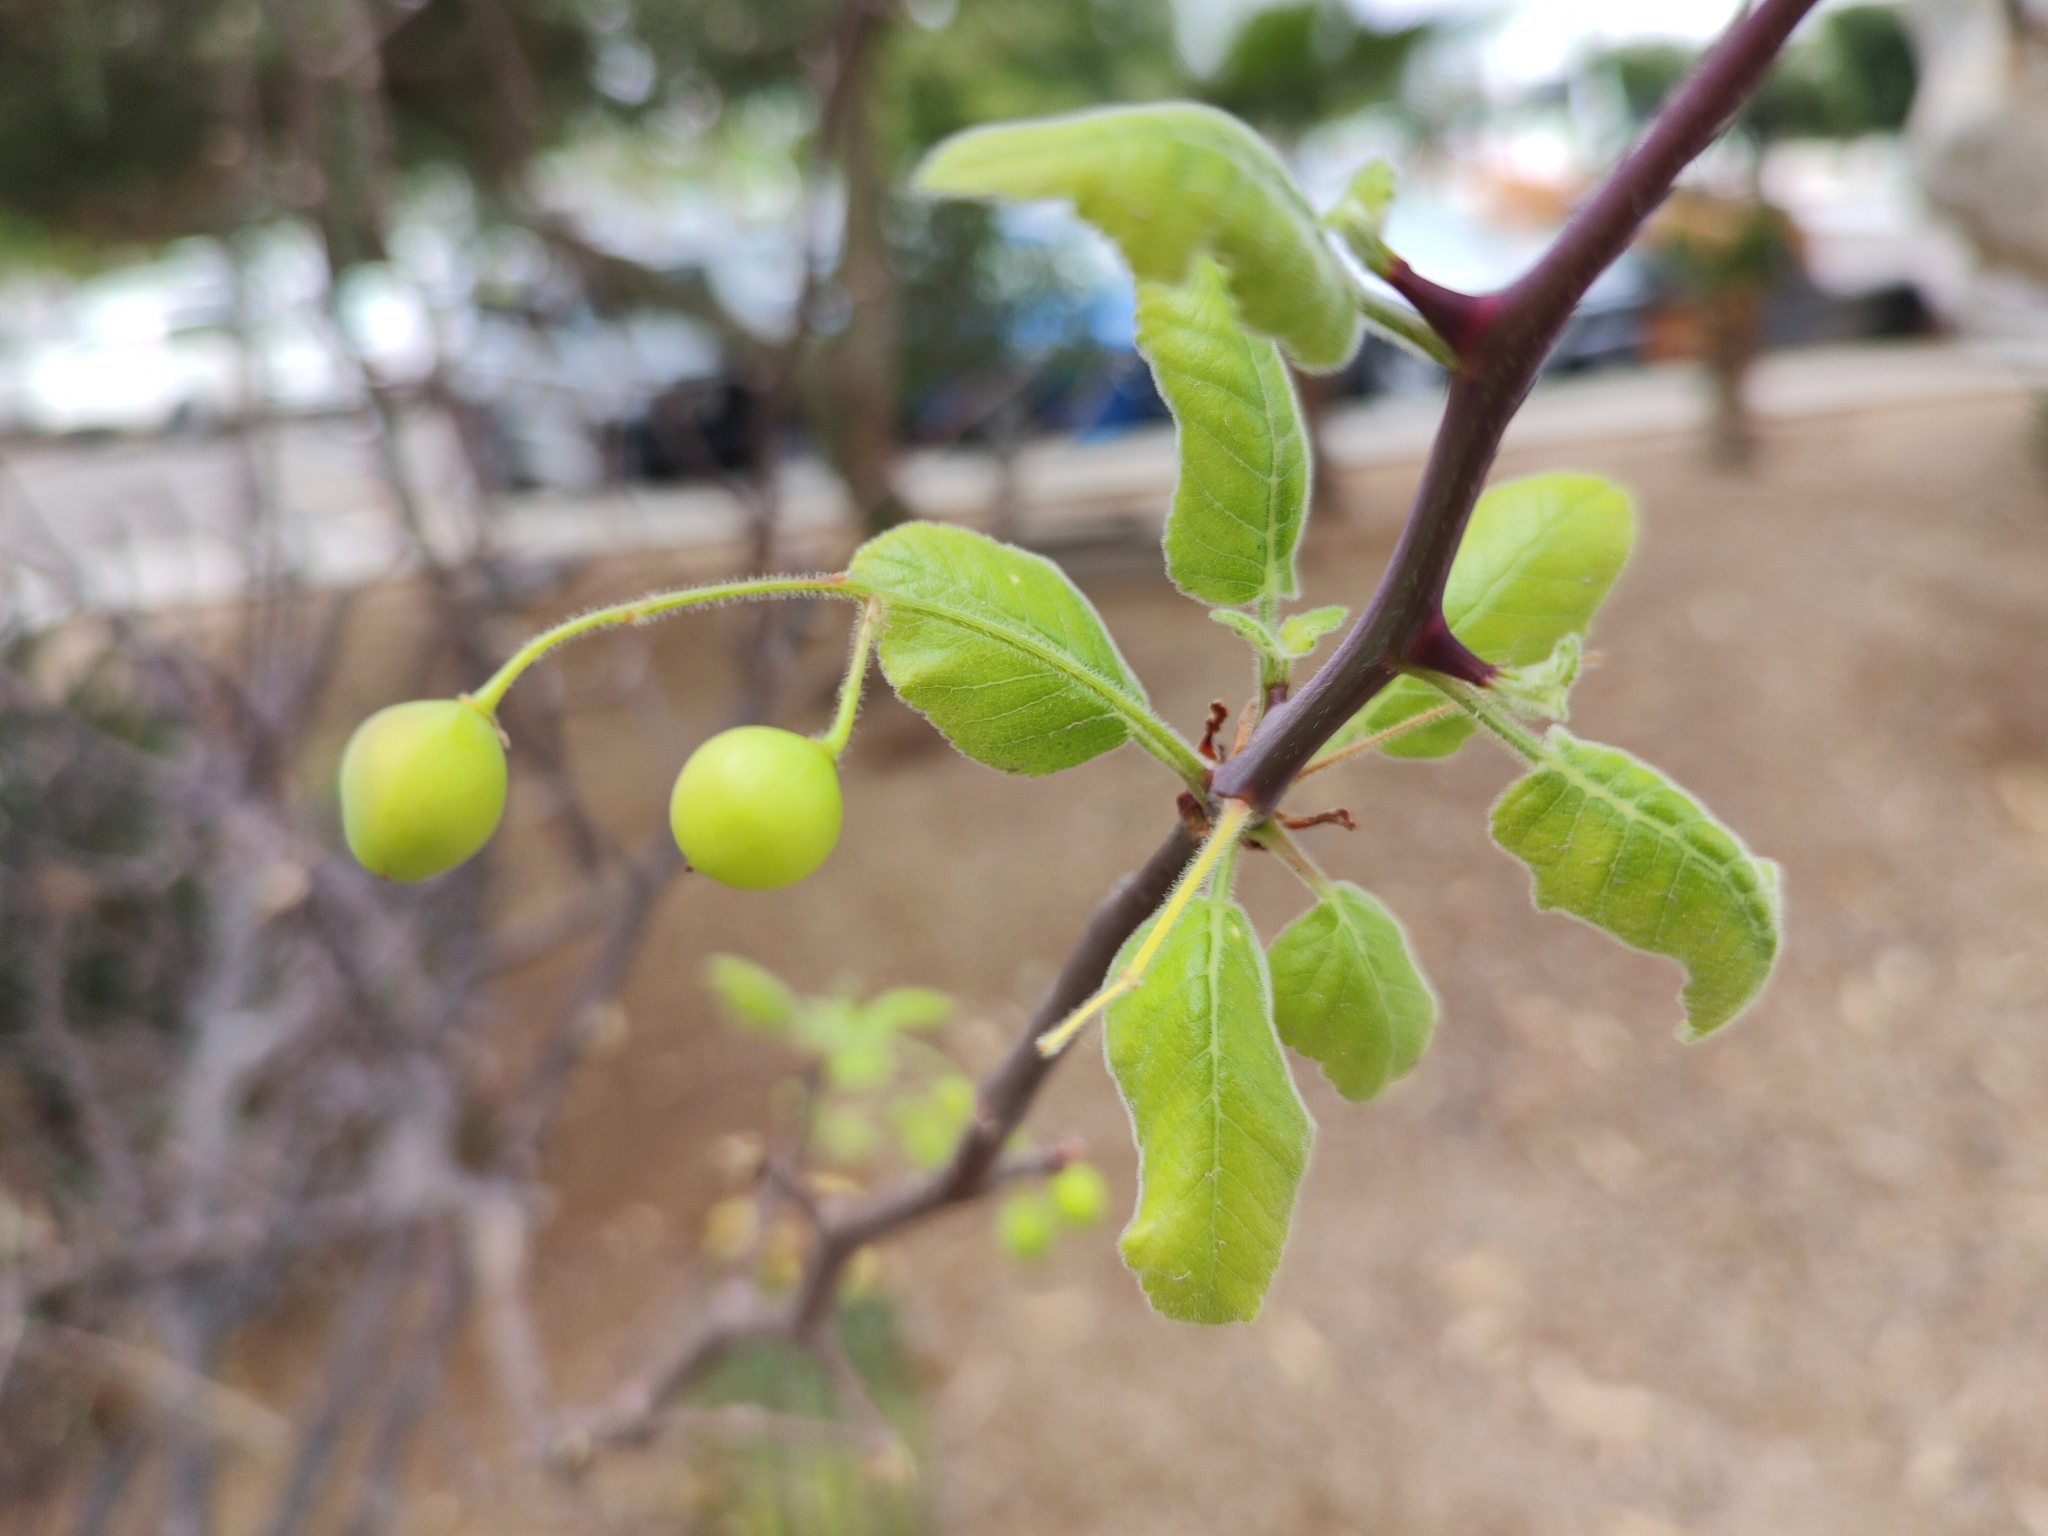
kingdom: Plantae
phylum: Tracheophyta
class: Magnoliopsida
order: Sapindales
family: Burseraceae
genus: Bursera
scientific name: Bursera epinnata
